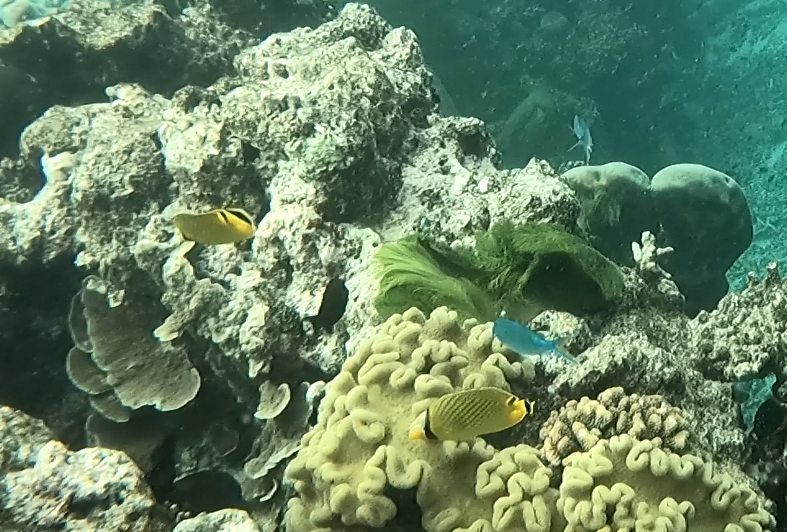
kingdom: Animalia
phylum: Chordata
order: Perciformes
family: Chaetodontidae
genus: Chaetodon
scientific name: Chaetodon rafflesii
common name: Latticed butterflyfish
